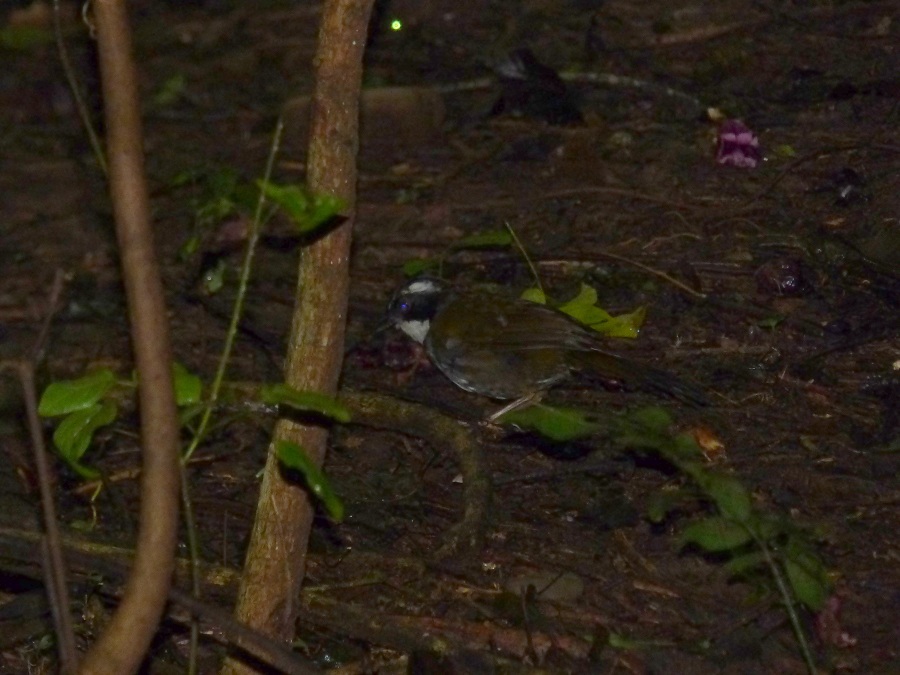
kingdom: Animalia
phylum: Chordata
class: Aves
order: Passeriformes
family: Passerellidae
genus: Arremon
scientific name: Arremon torquatus
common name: White-browed brushfinch
